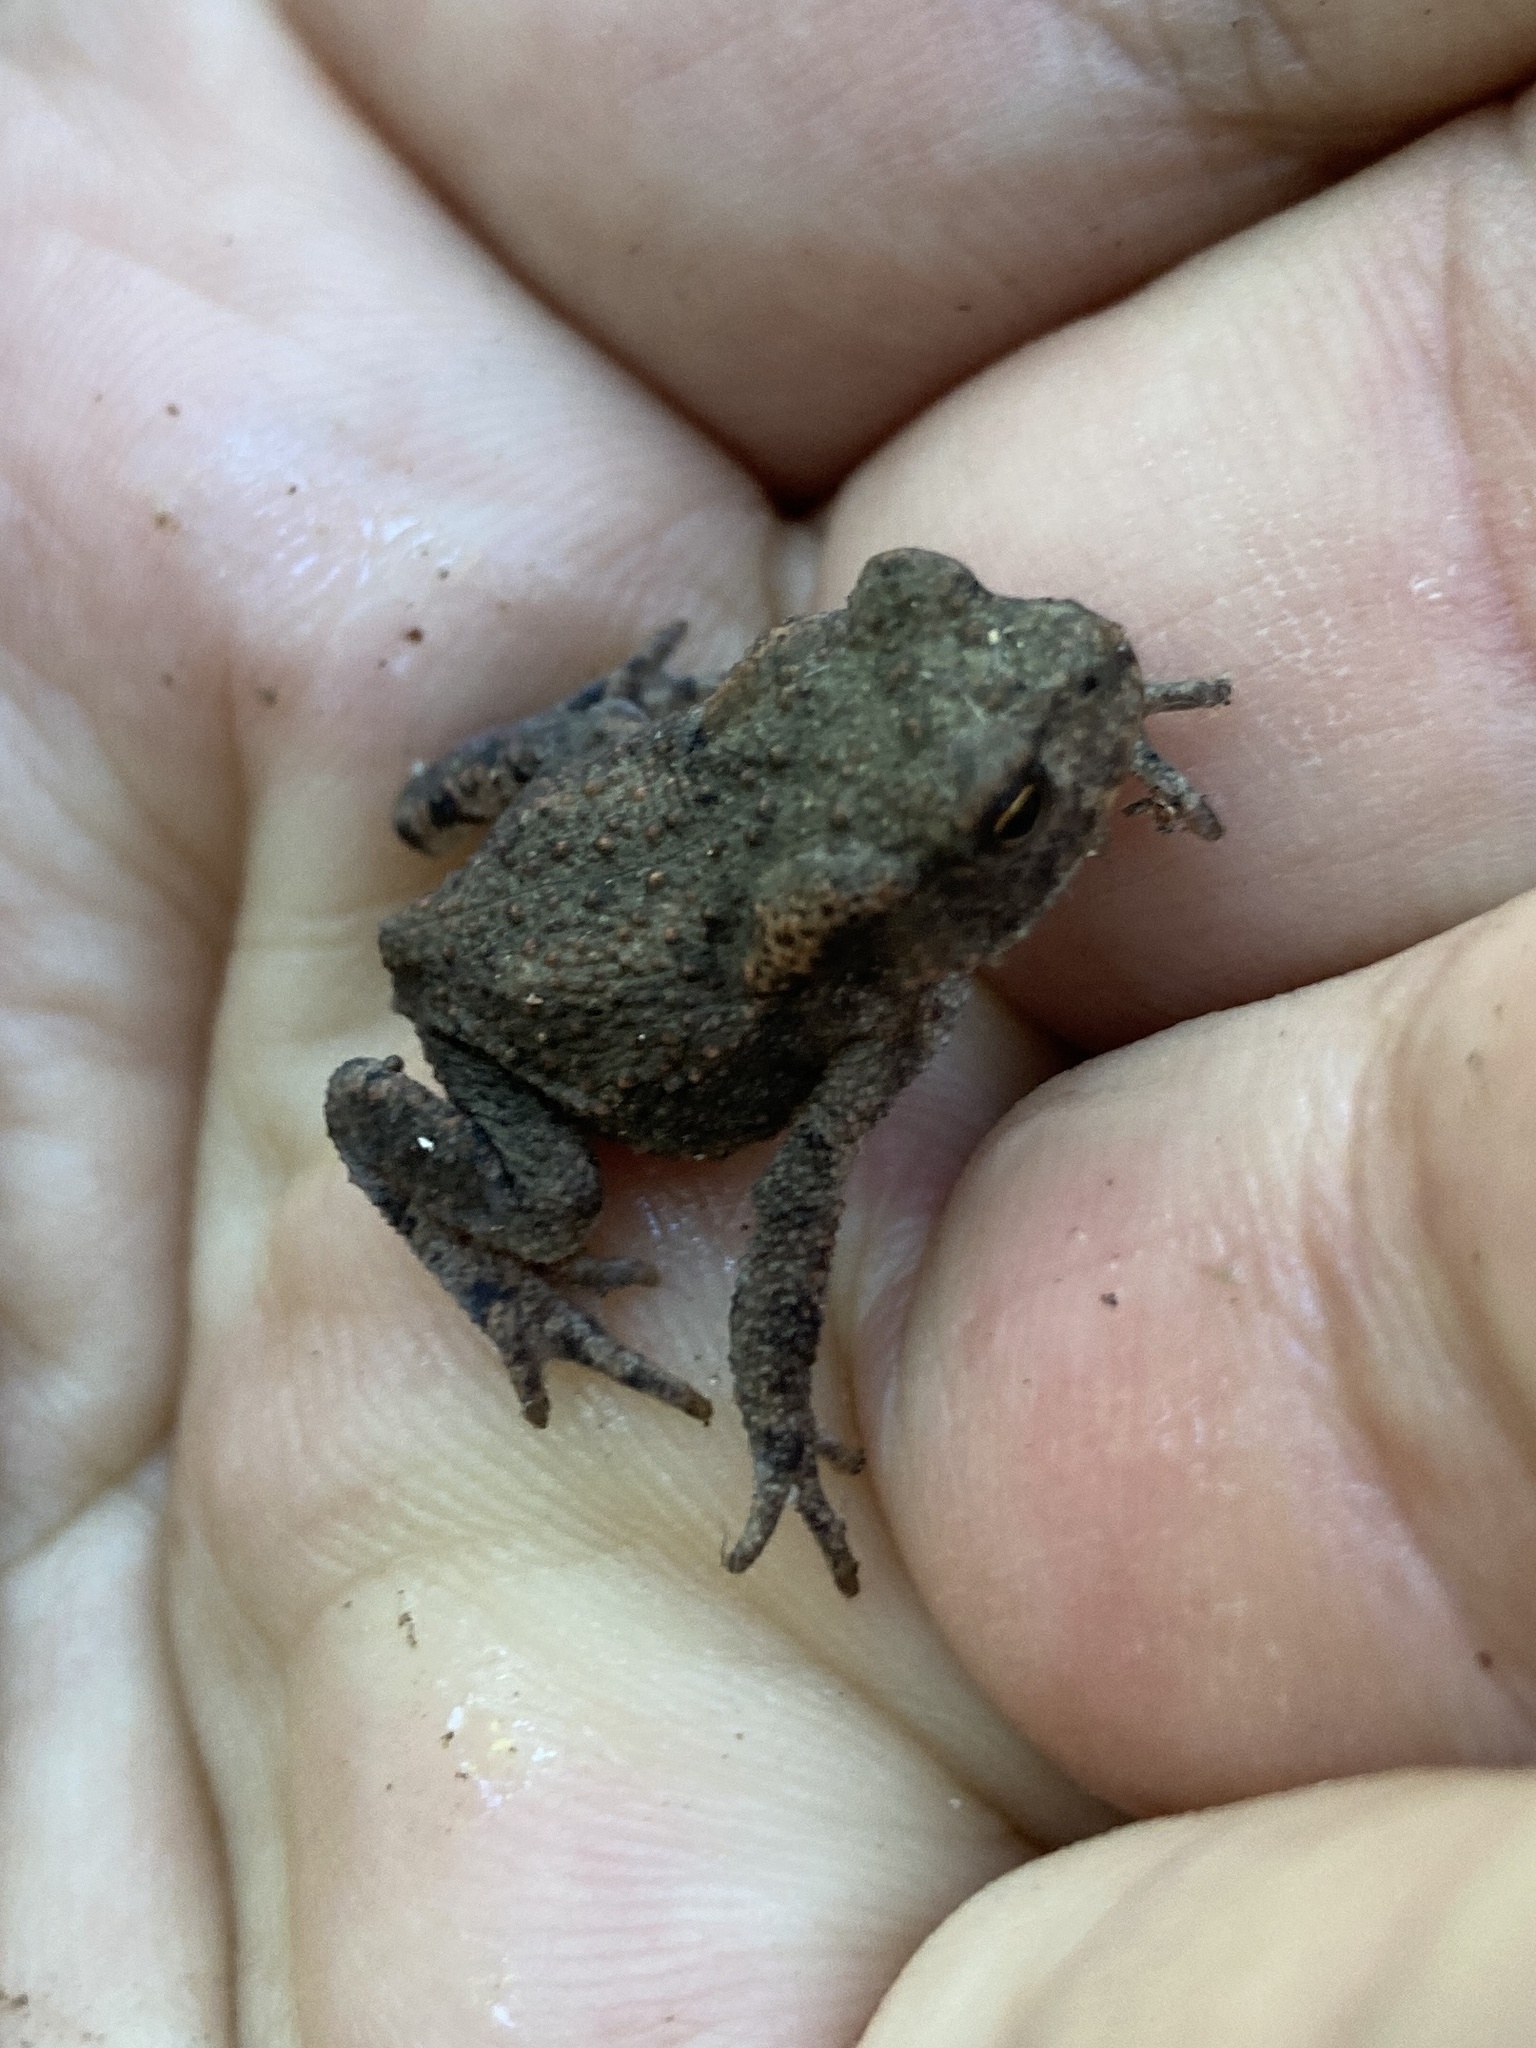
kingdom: Animalia
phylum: Chordata
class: Amphibia
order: Anura
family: Bufonidae
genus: Bufo
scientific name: Bufo bufo
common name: Common toad
